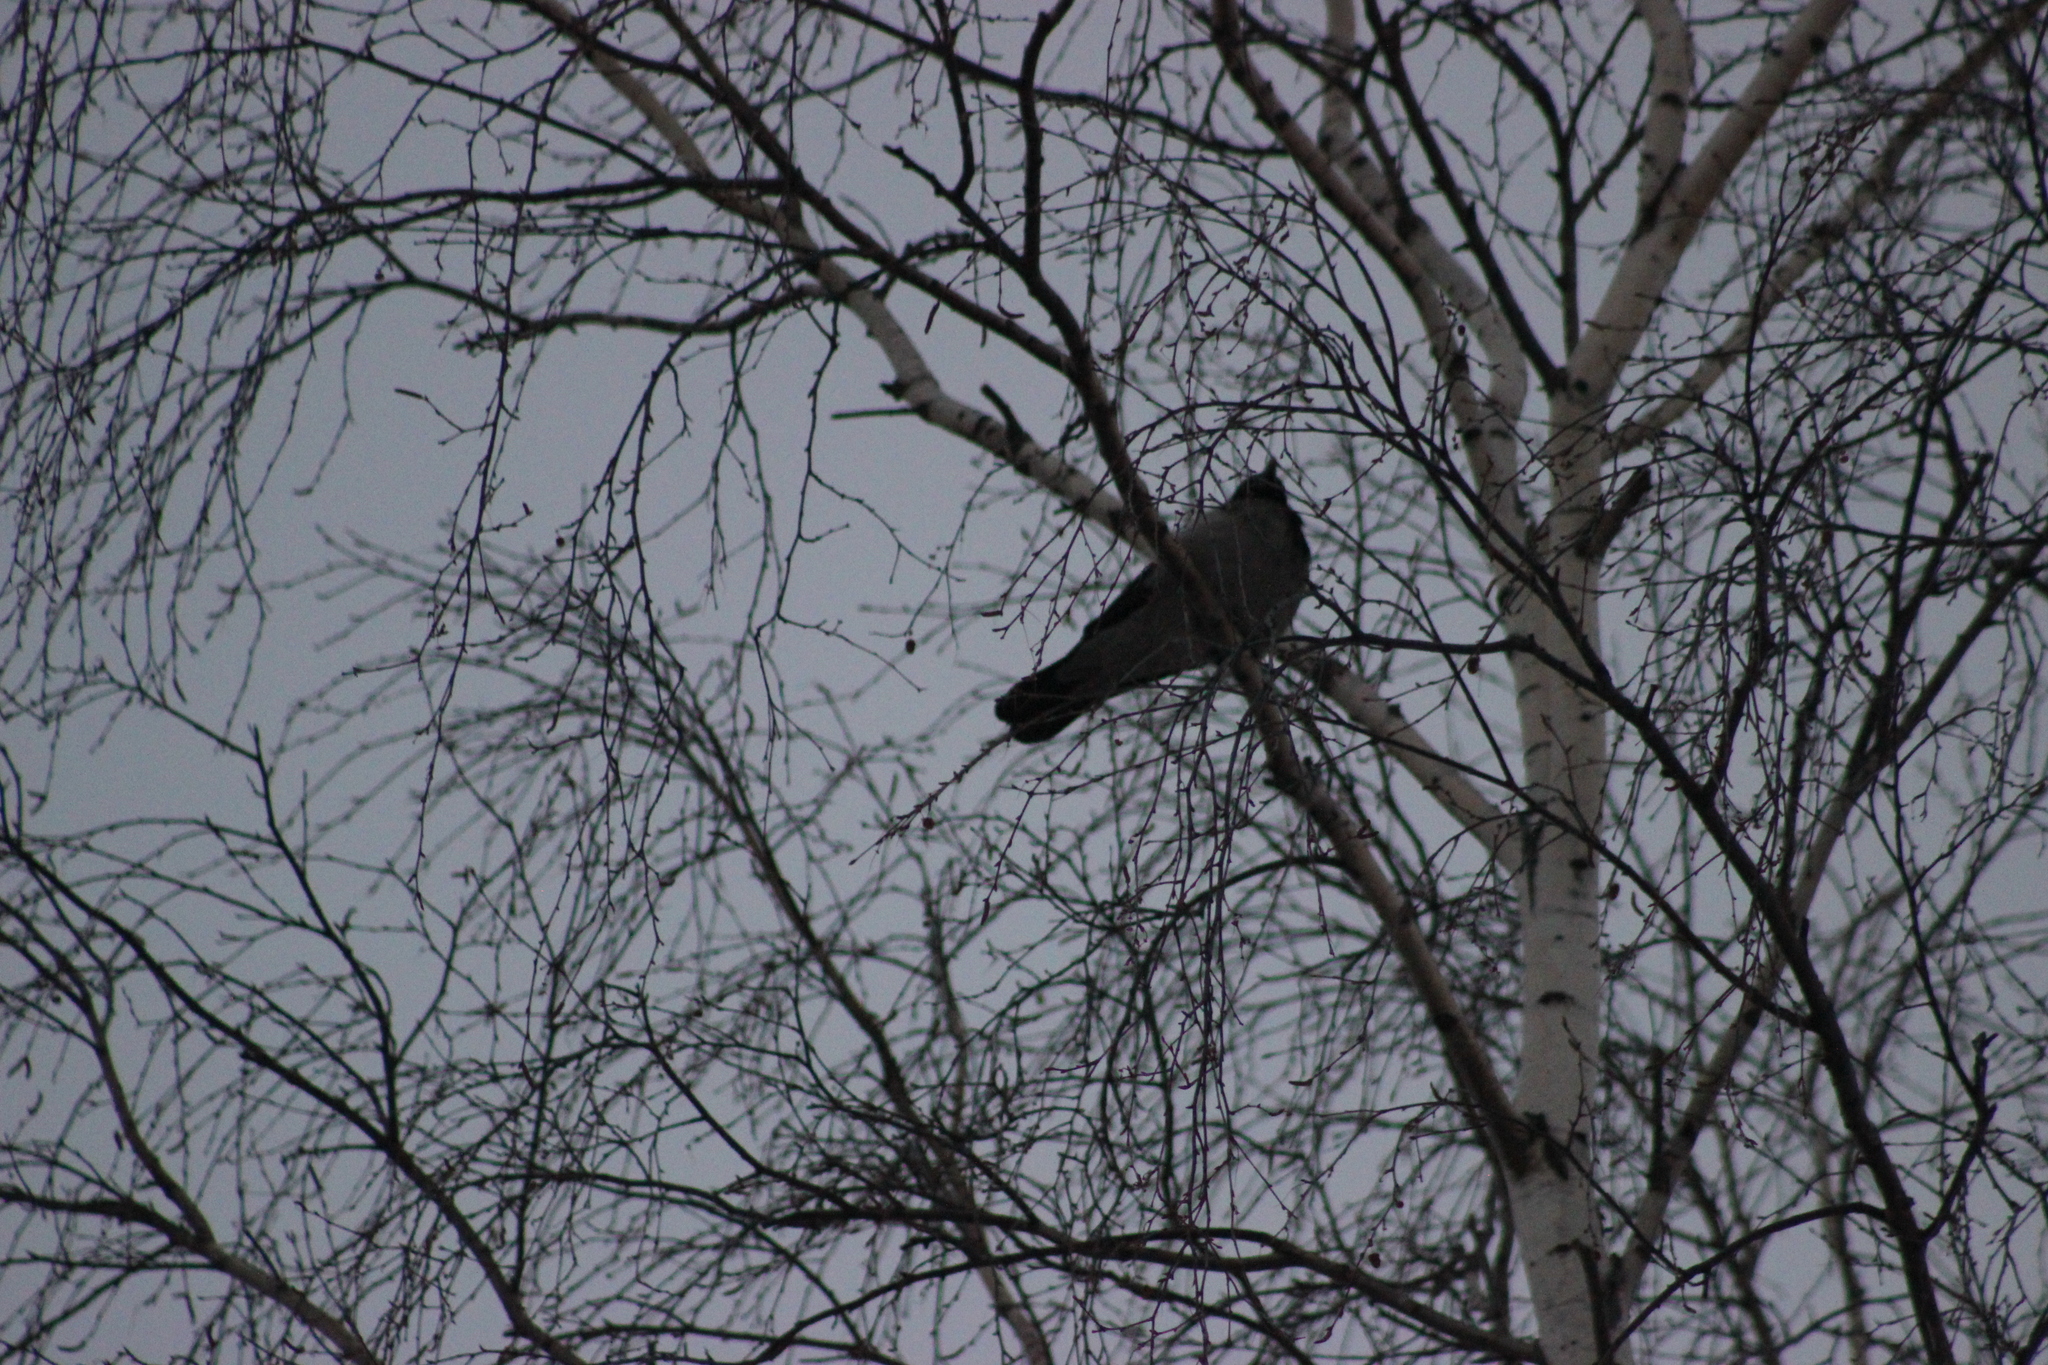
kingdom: Animalia
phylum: Chordata
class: Aves
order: Passeriformes
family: Corvidae
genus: Corvus
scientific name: Corvus cornix
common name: Hooded crow
